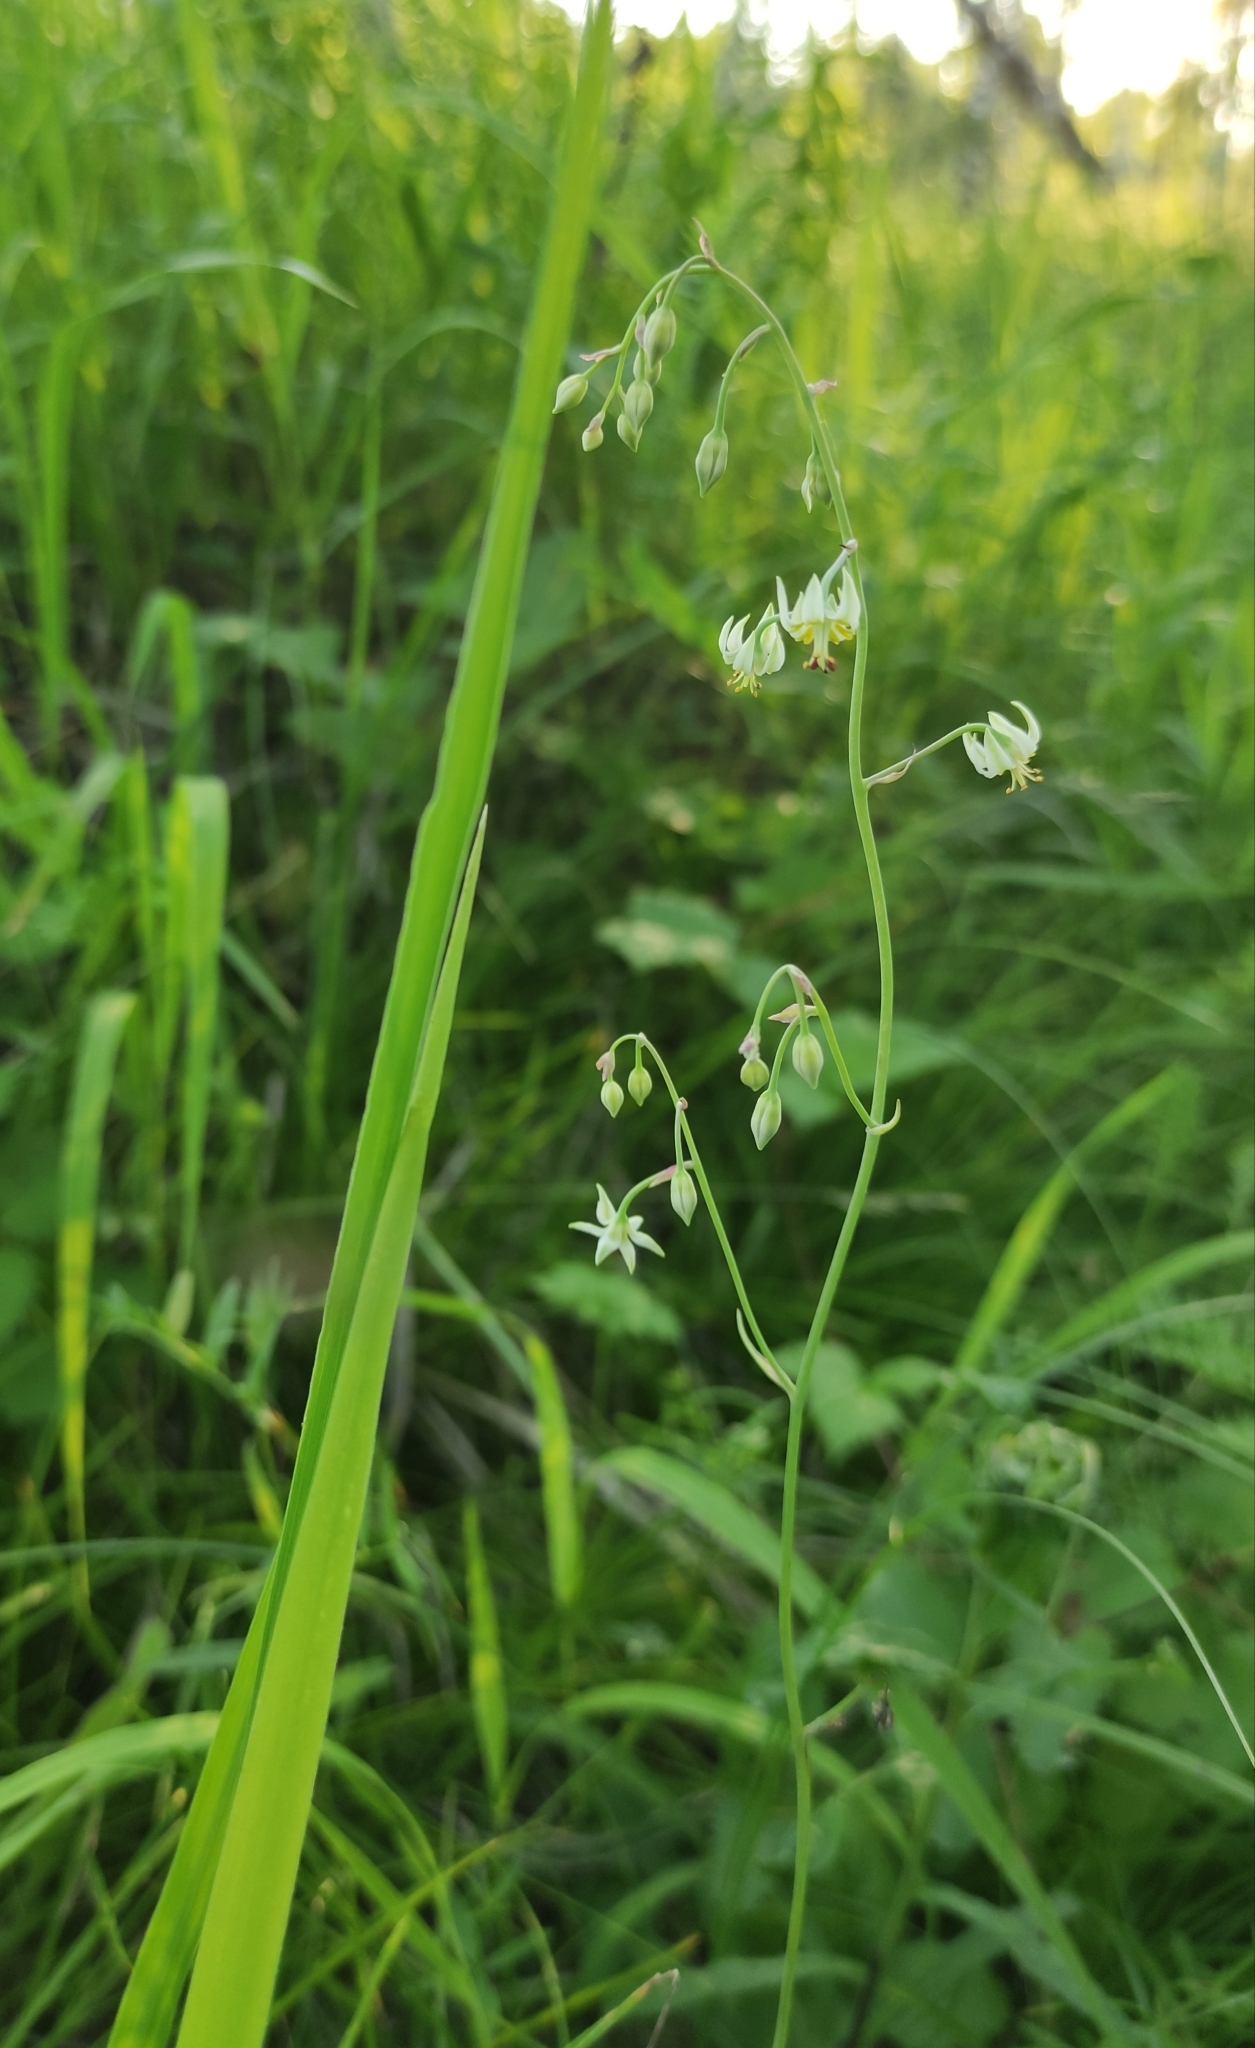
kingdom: Plantae
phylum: Tracheophyta
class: Liliopsida
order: Liliales
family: Melanthiaceae
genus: Anticlea
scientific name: Anticlea sibirica
